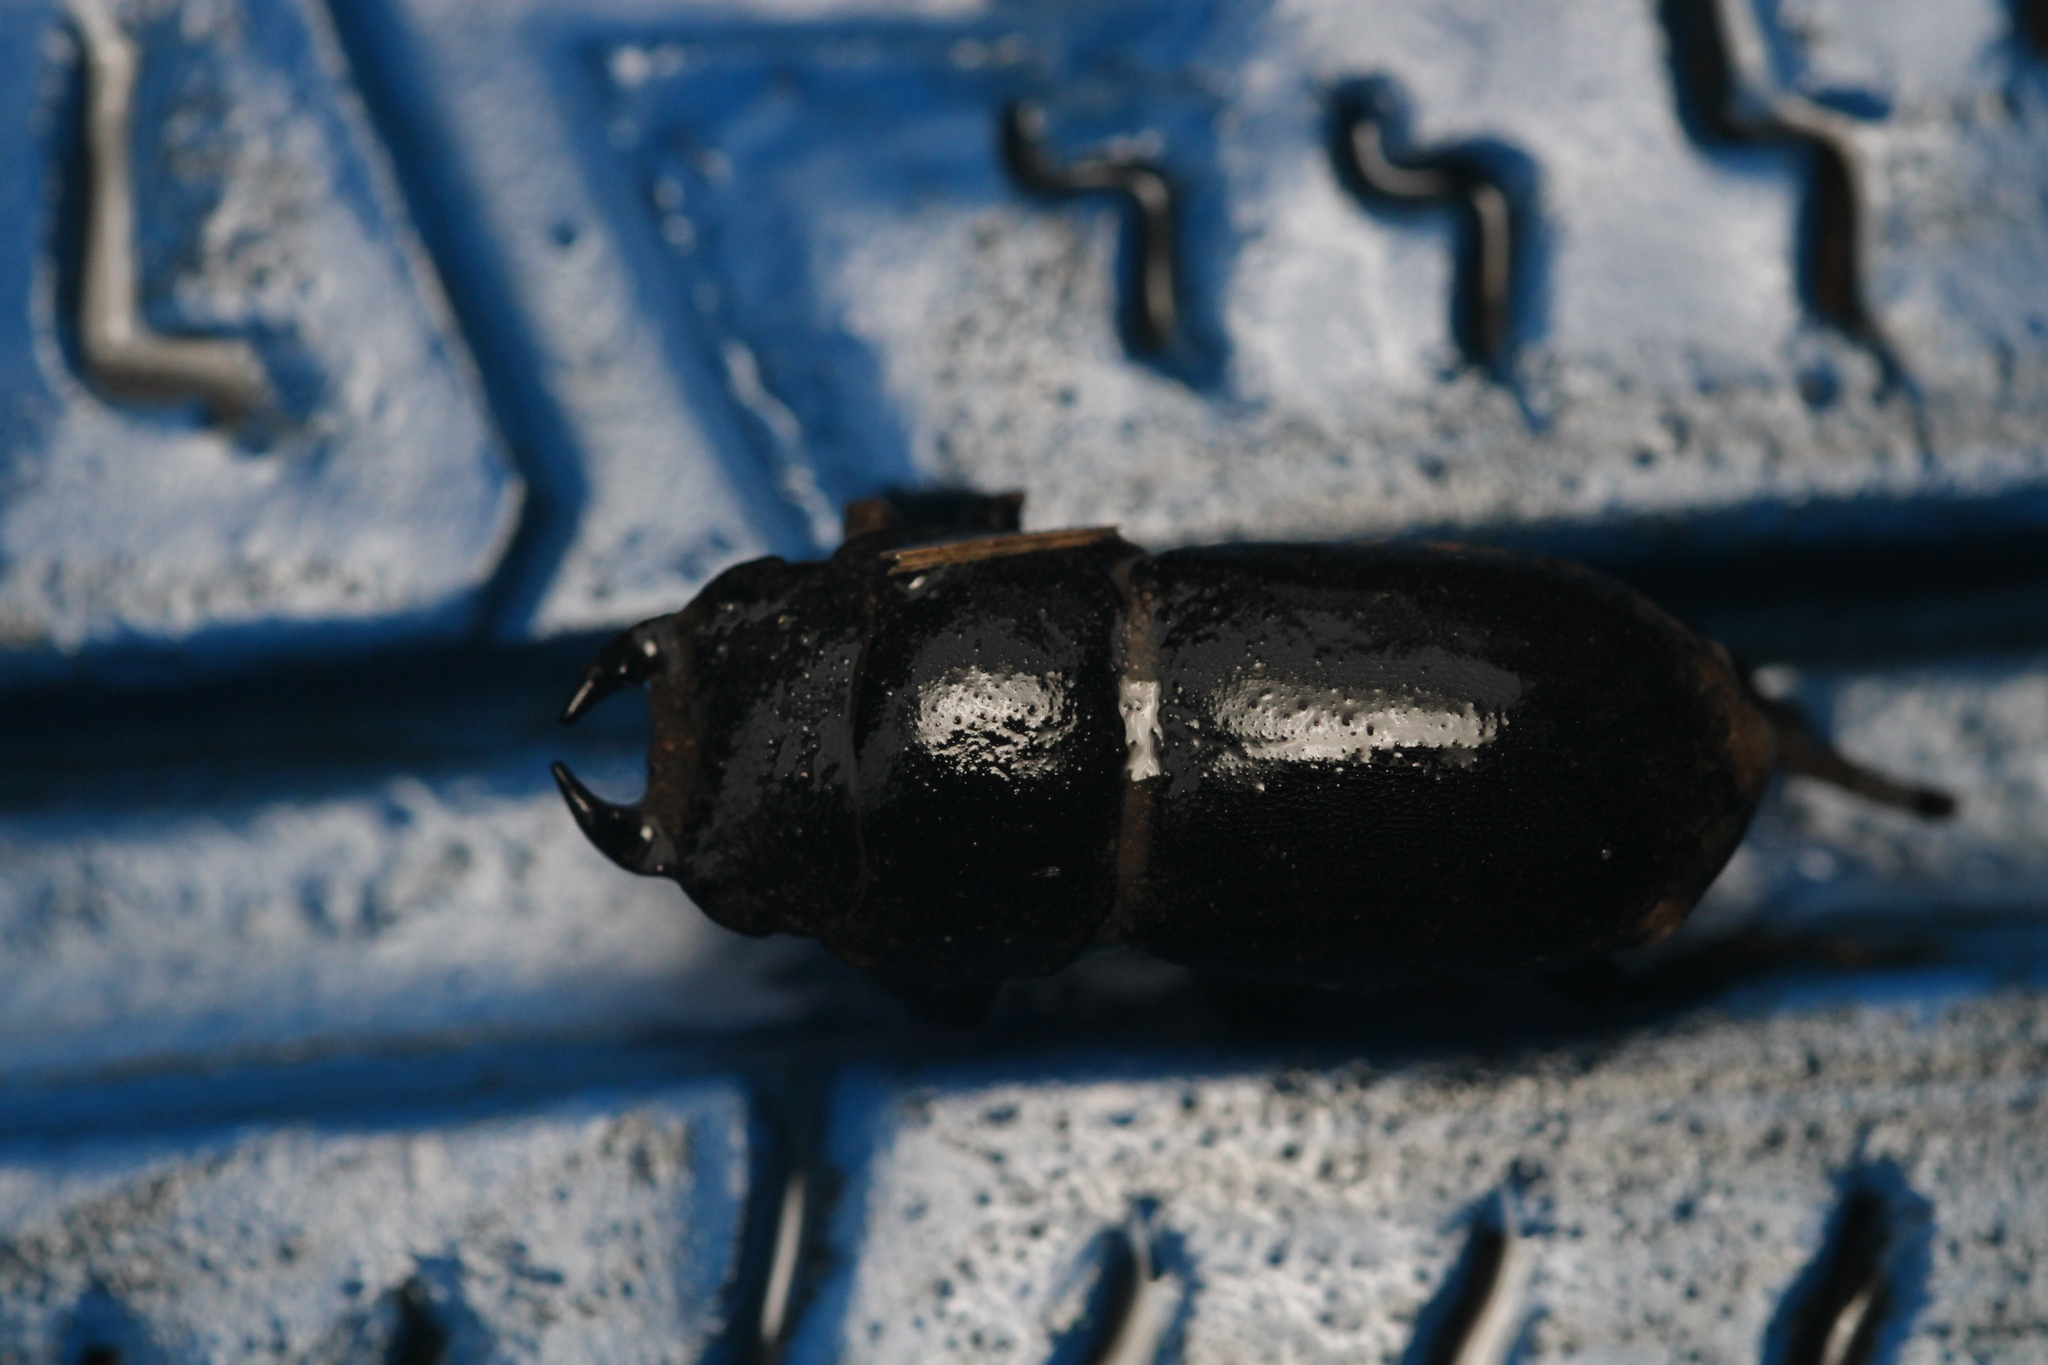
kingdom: Animalia
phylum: Arthropoda
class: Insecta
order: Coleoptera
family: Lucanidae
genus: Dorcus
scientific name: Dorcus parallelipipedus
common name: Lesser stag beetle
